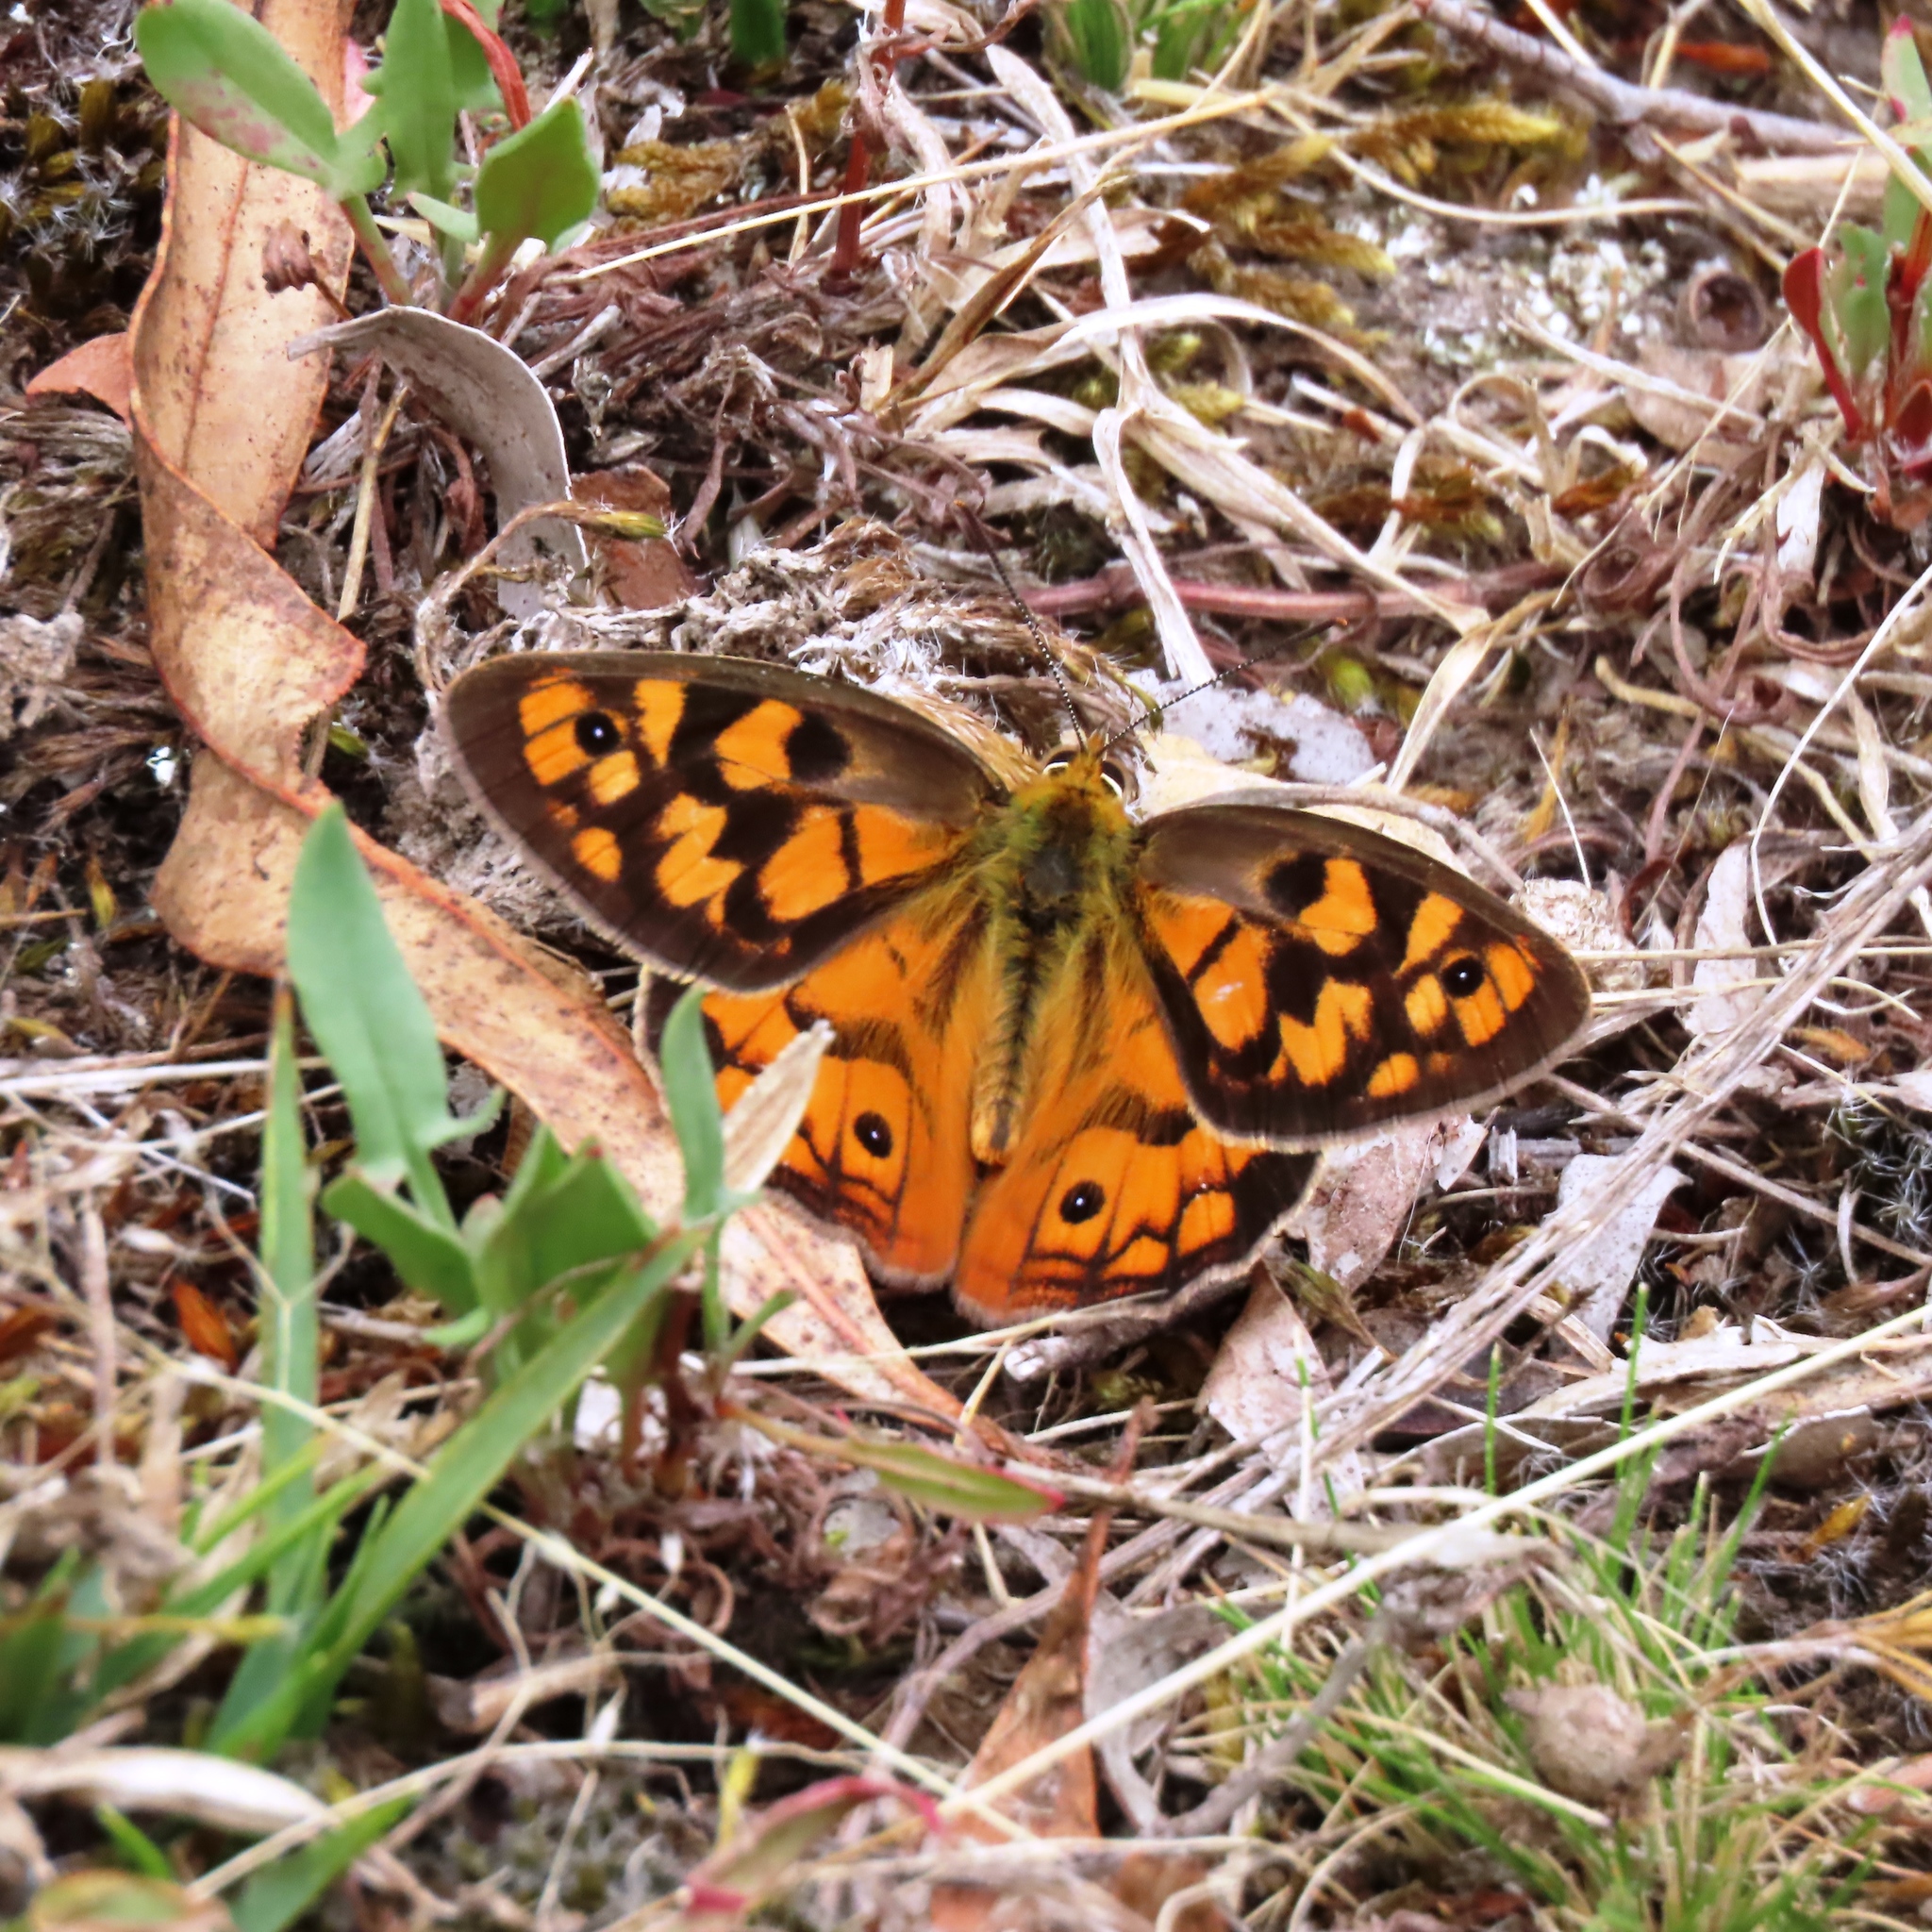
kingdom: Animalia
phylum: Arthropoda
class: Insecta
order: Lepidoptera
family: Nymphalidae
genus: Heteronympha
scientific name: Heteronympha penelope
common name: Shouldered brown
